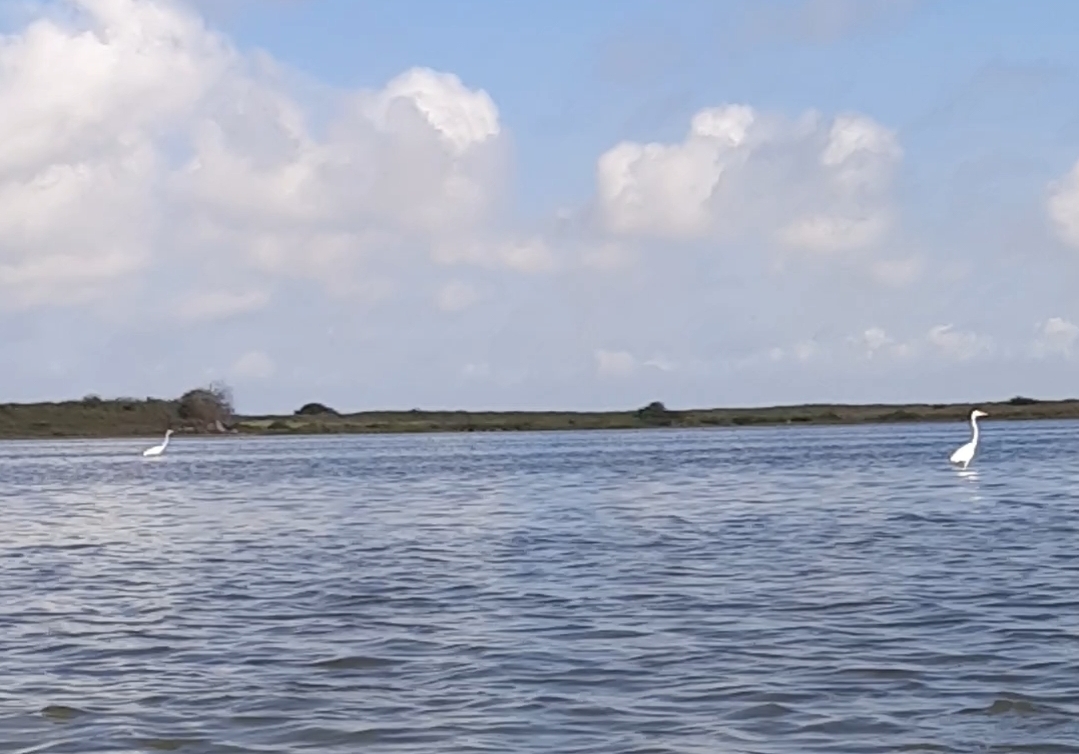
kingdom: Animalia
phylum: Chordata
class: Aves
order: Pelecaniformes
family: Ardeidae
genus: Ardea
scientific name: Ardea alba
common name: Great egret
